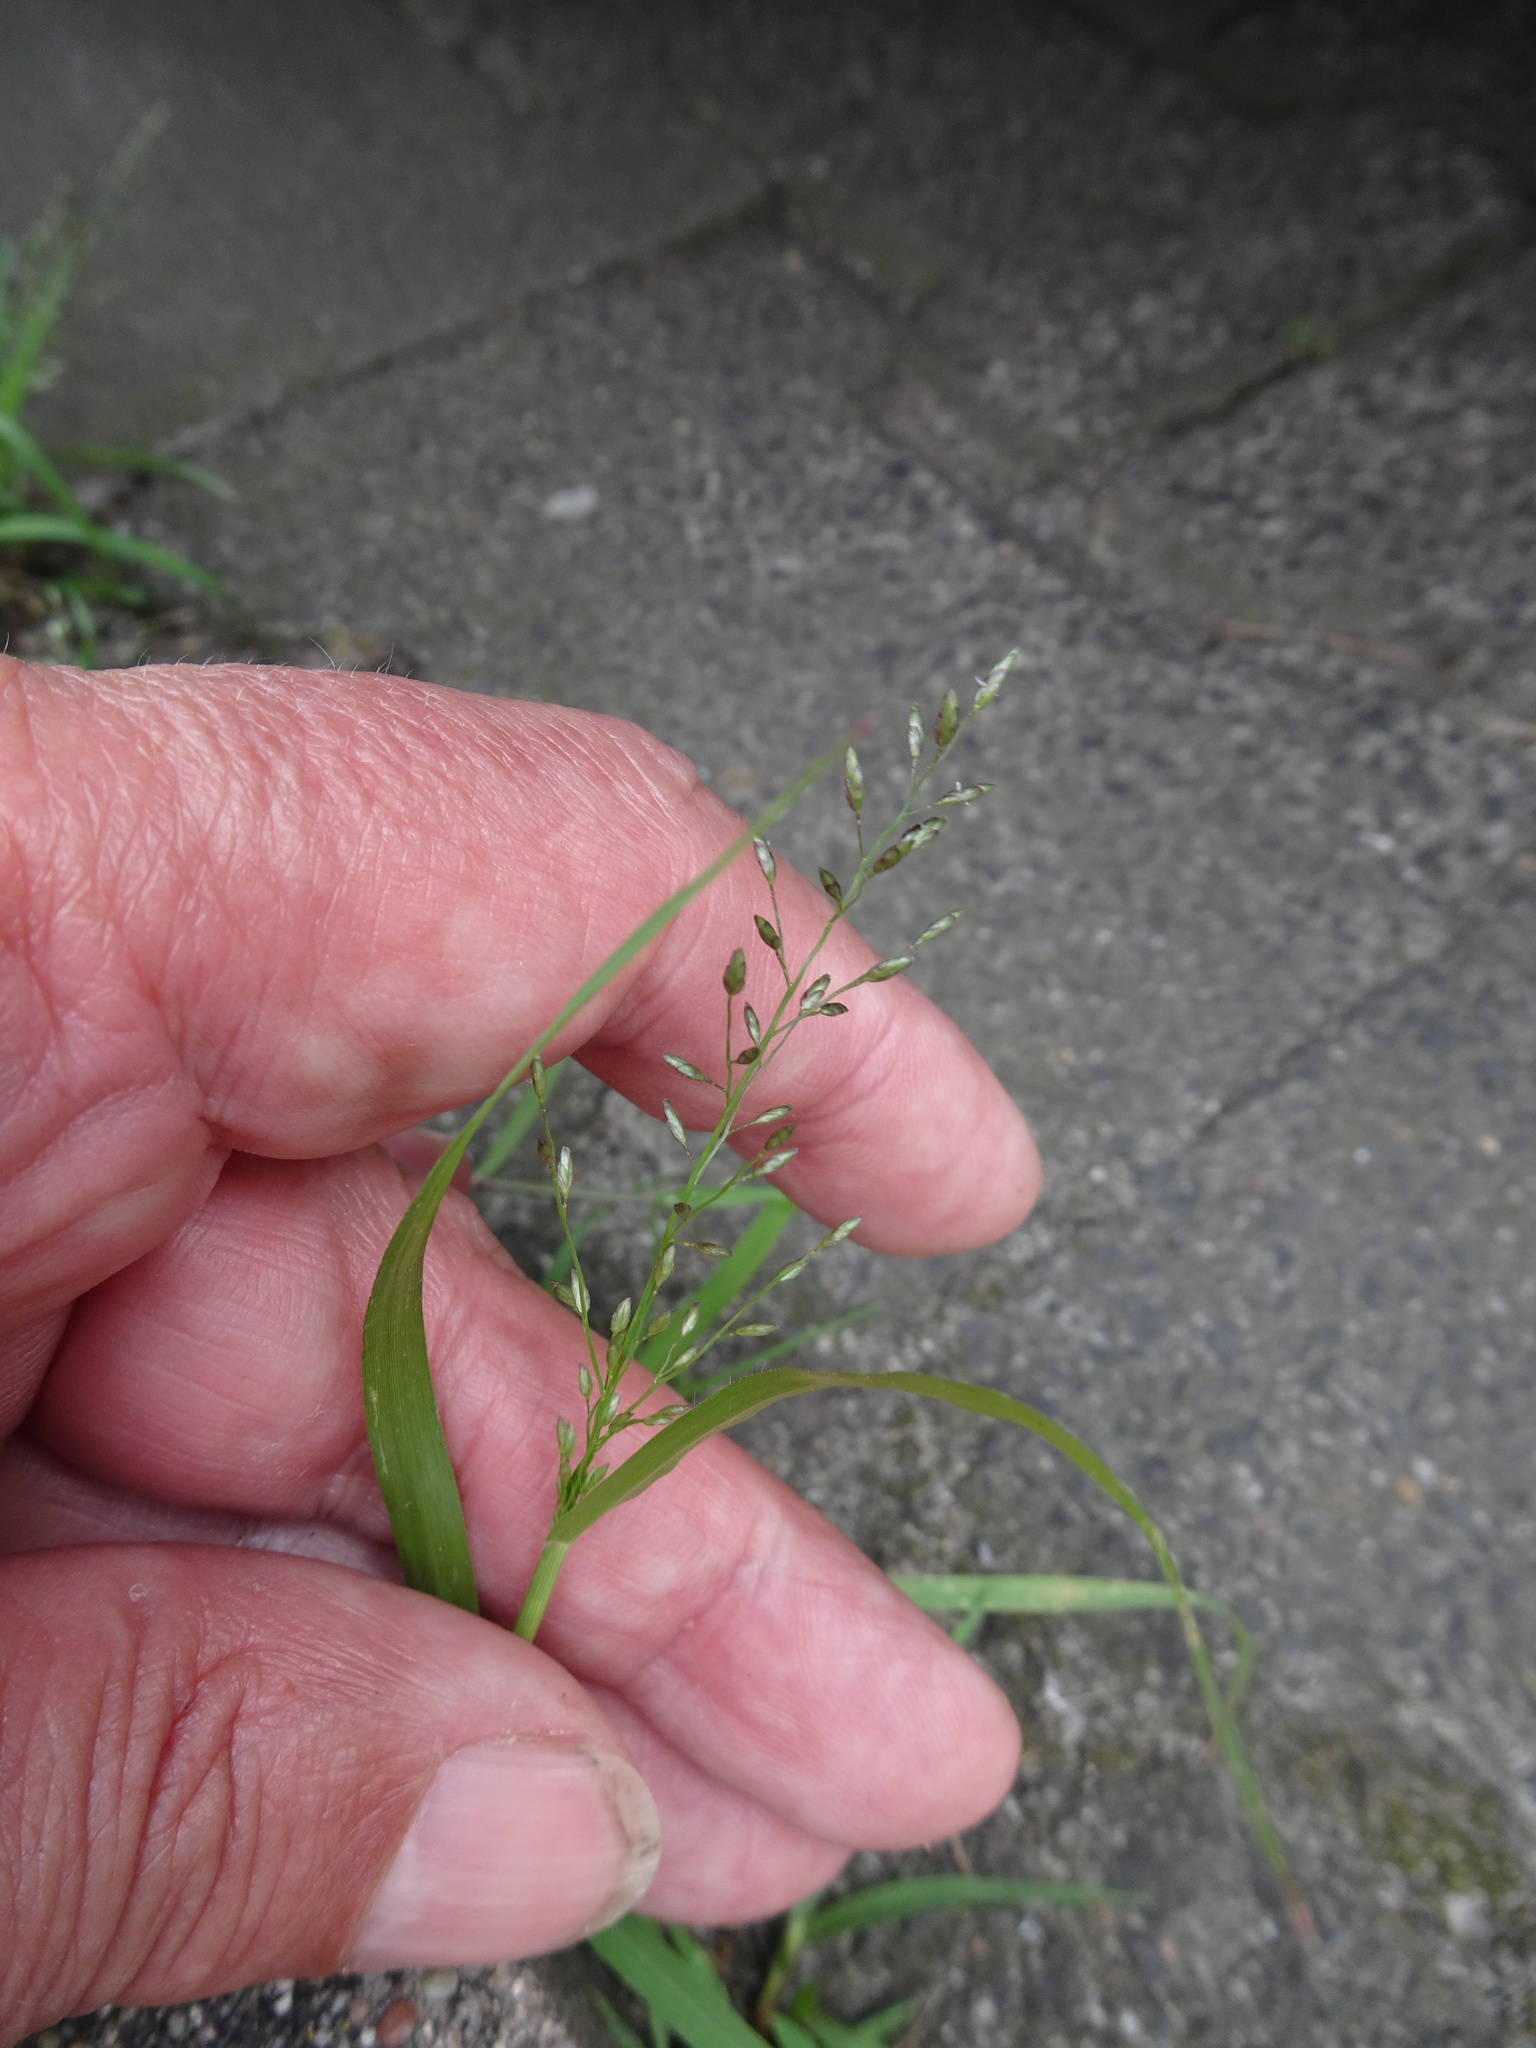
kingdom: Plantae
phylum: Tracheophyta
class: Liliopsida
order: Poales
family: Poaceae
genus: Eragrostis
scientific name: Eragrostis minor
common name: Small love-grass
